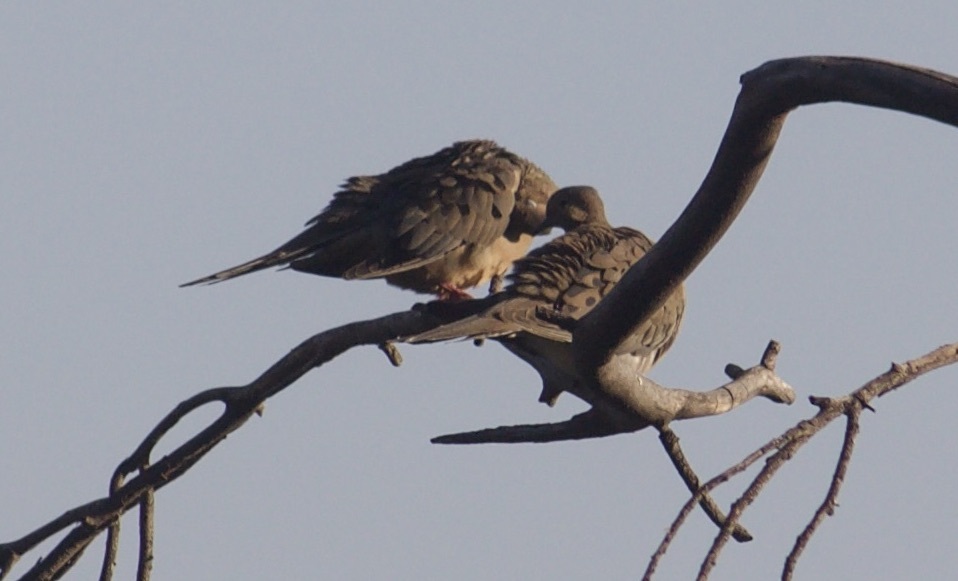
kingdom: Animalia
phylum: Chordata
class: Aves
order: Columbiformes
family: Columbidae
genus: Zenaida
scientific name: Zenaida macroura
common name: Mourning dove
